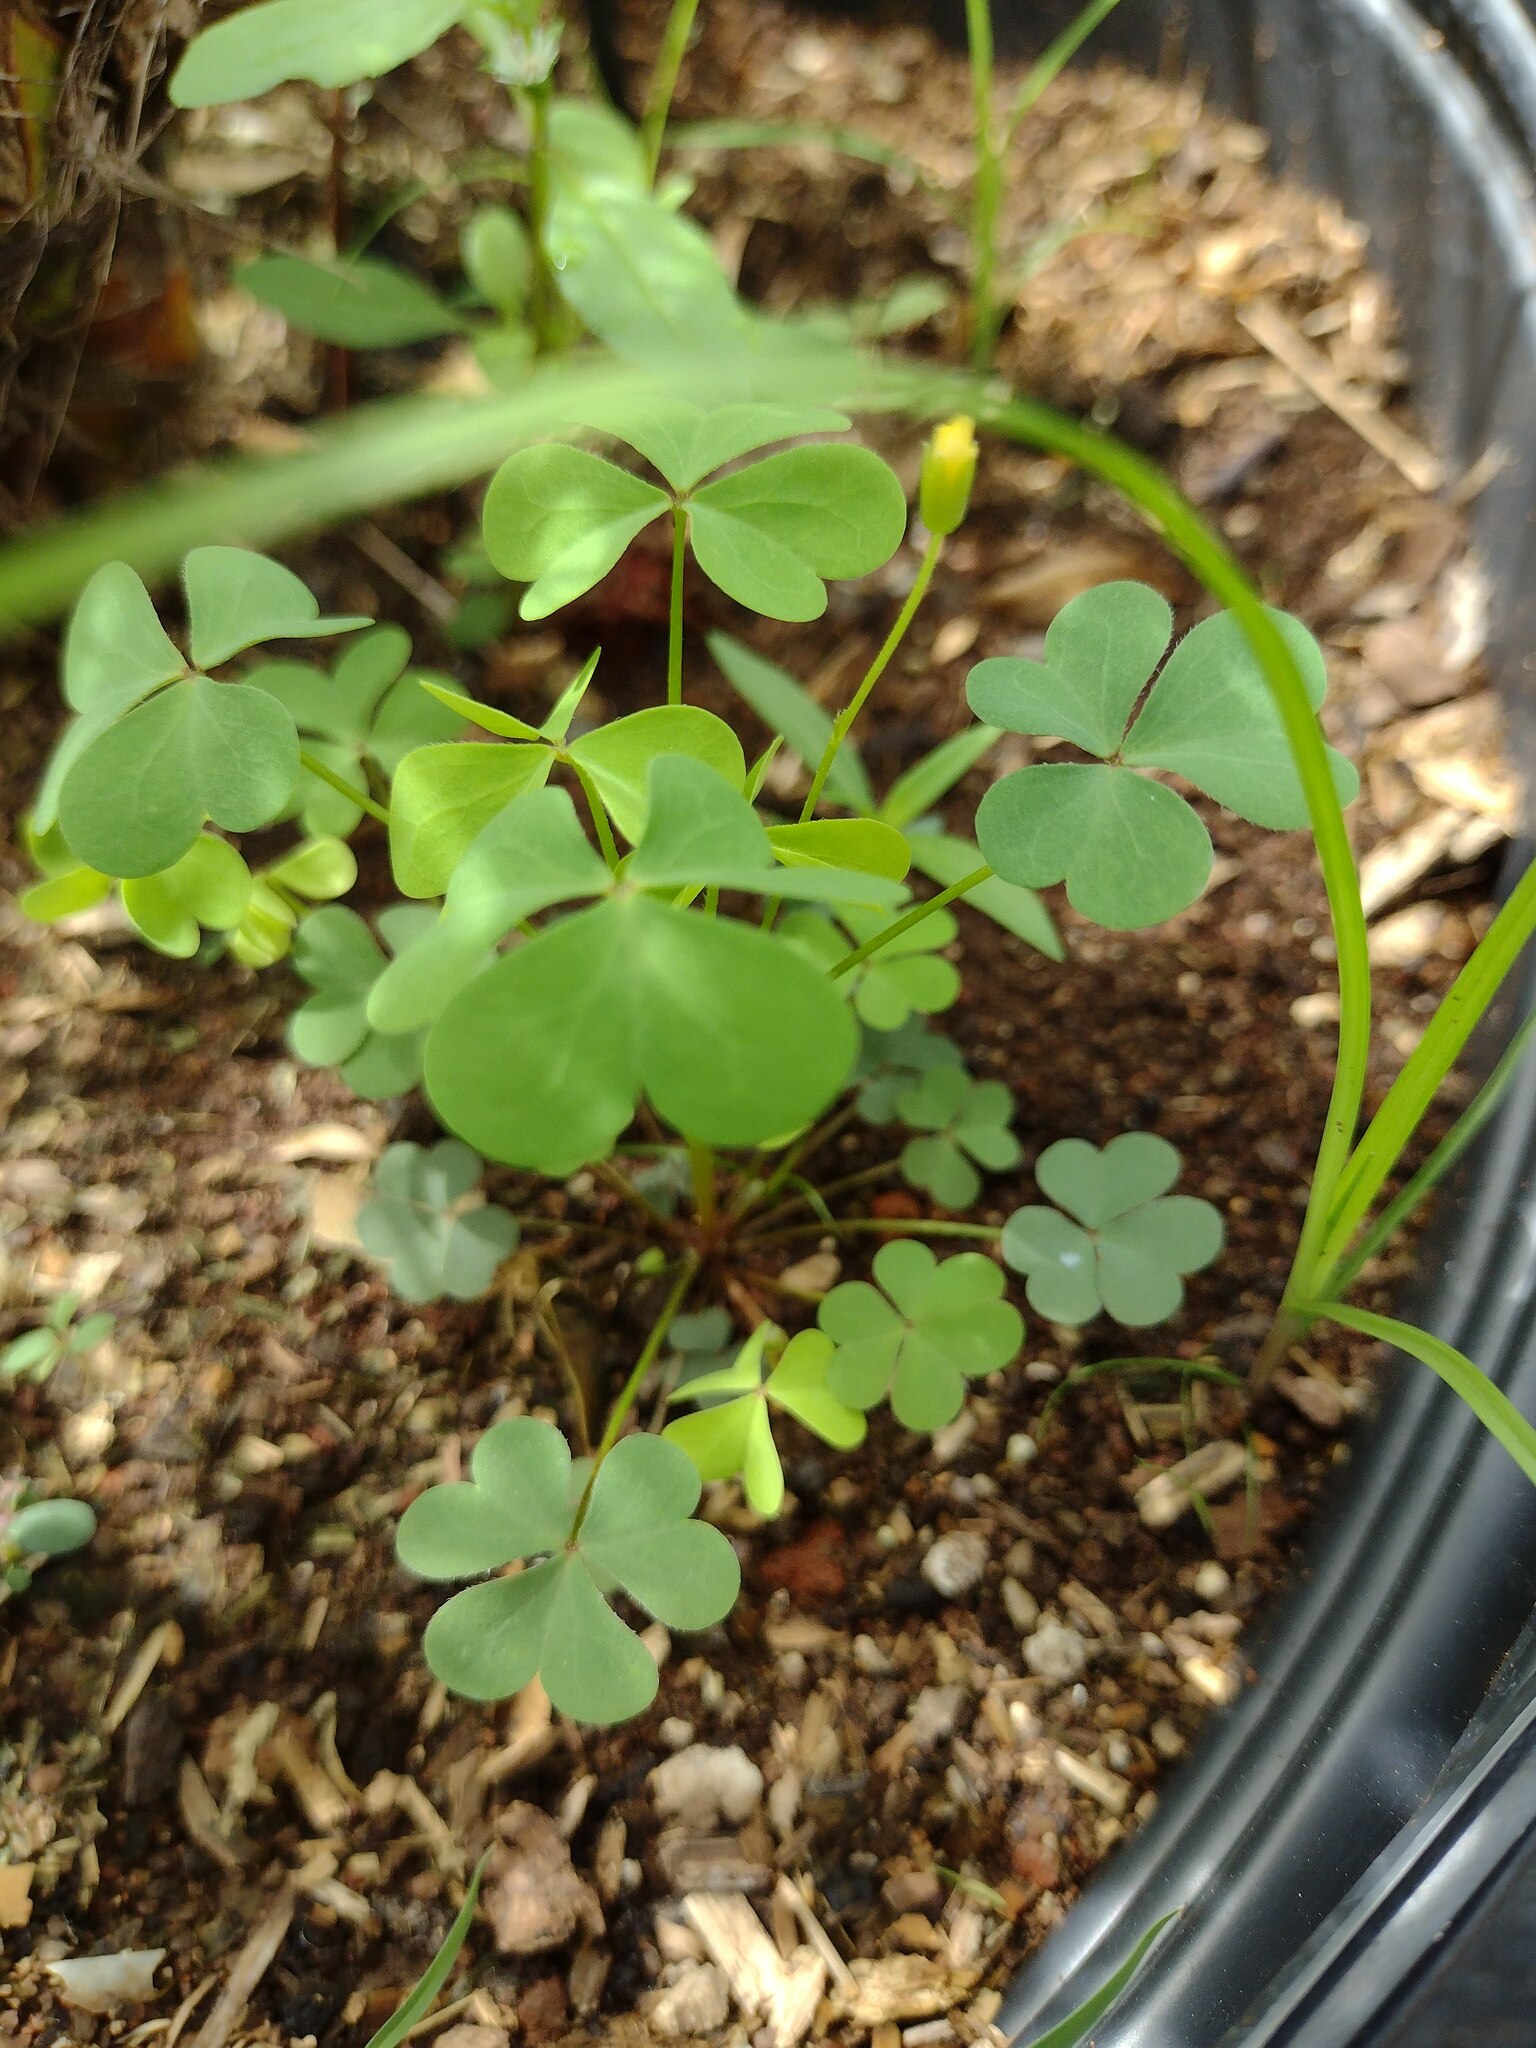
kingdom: Plantae
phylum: Tracheophyta
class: Magnoliopsida
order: Oxalidales
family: Oxalidaceae
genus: Oxalis
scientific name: Oxalis corniculata
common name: Procumbent yellow-sorrel
